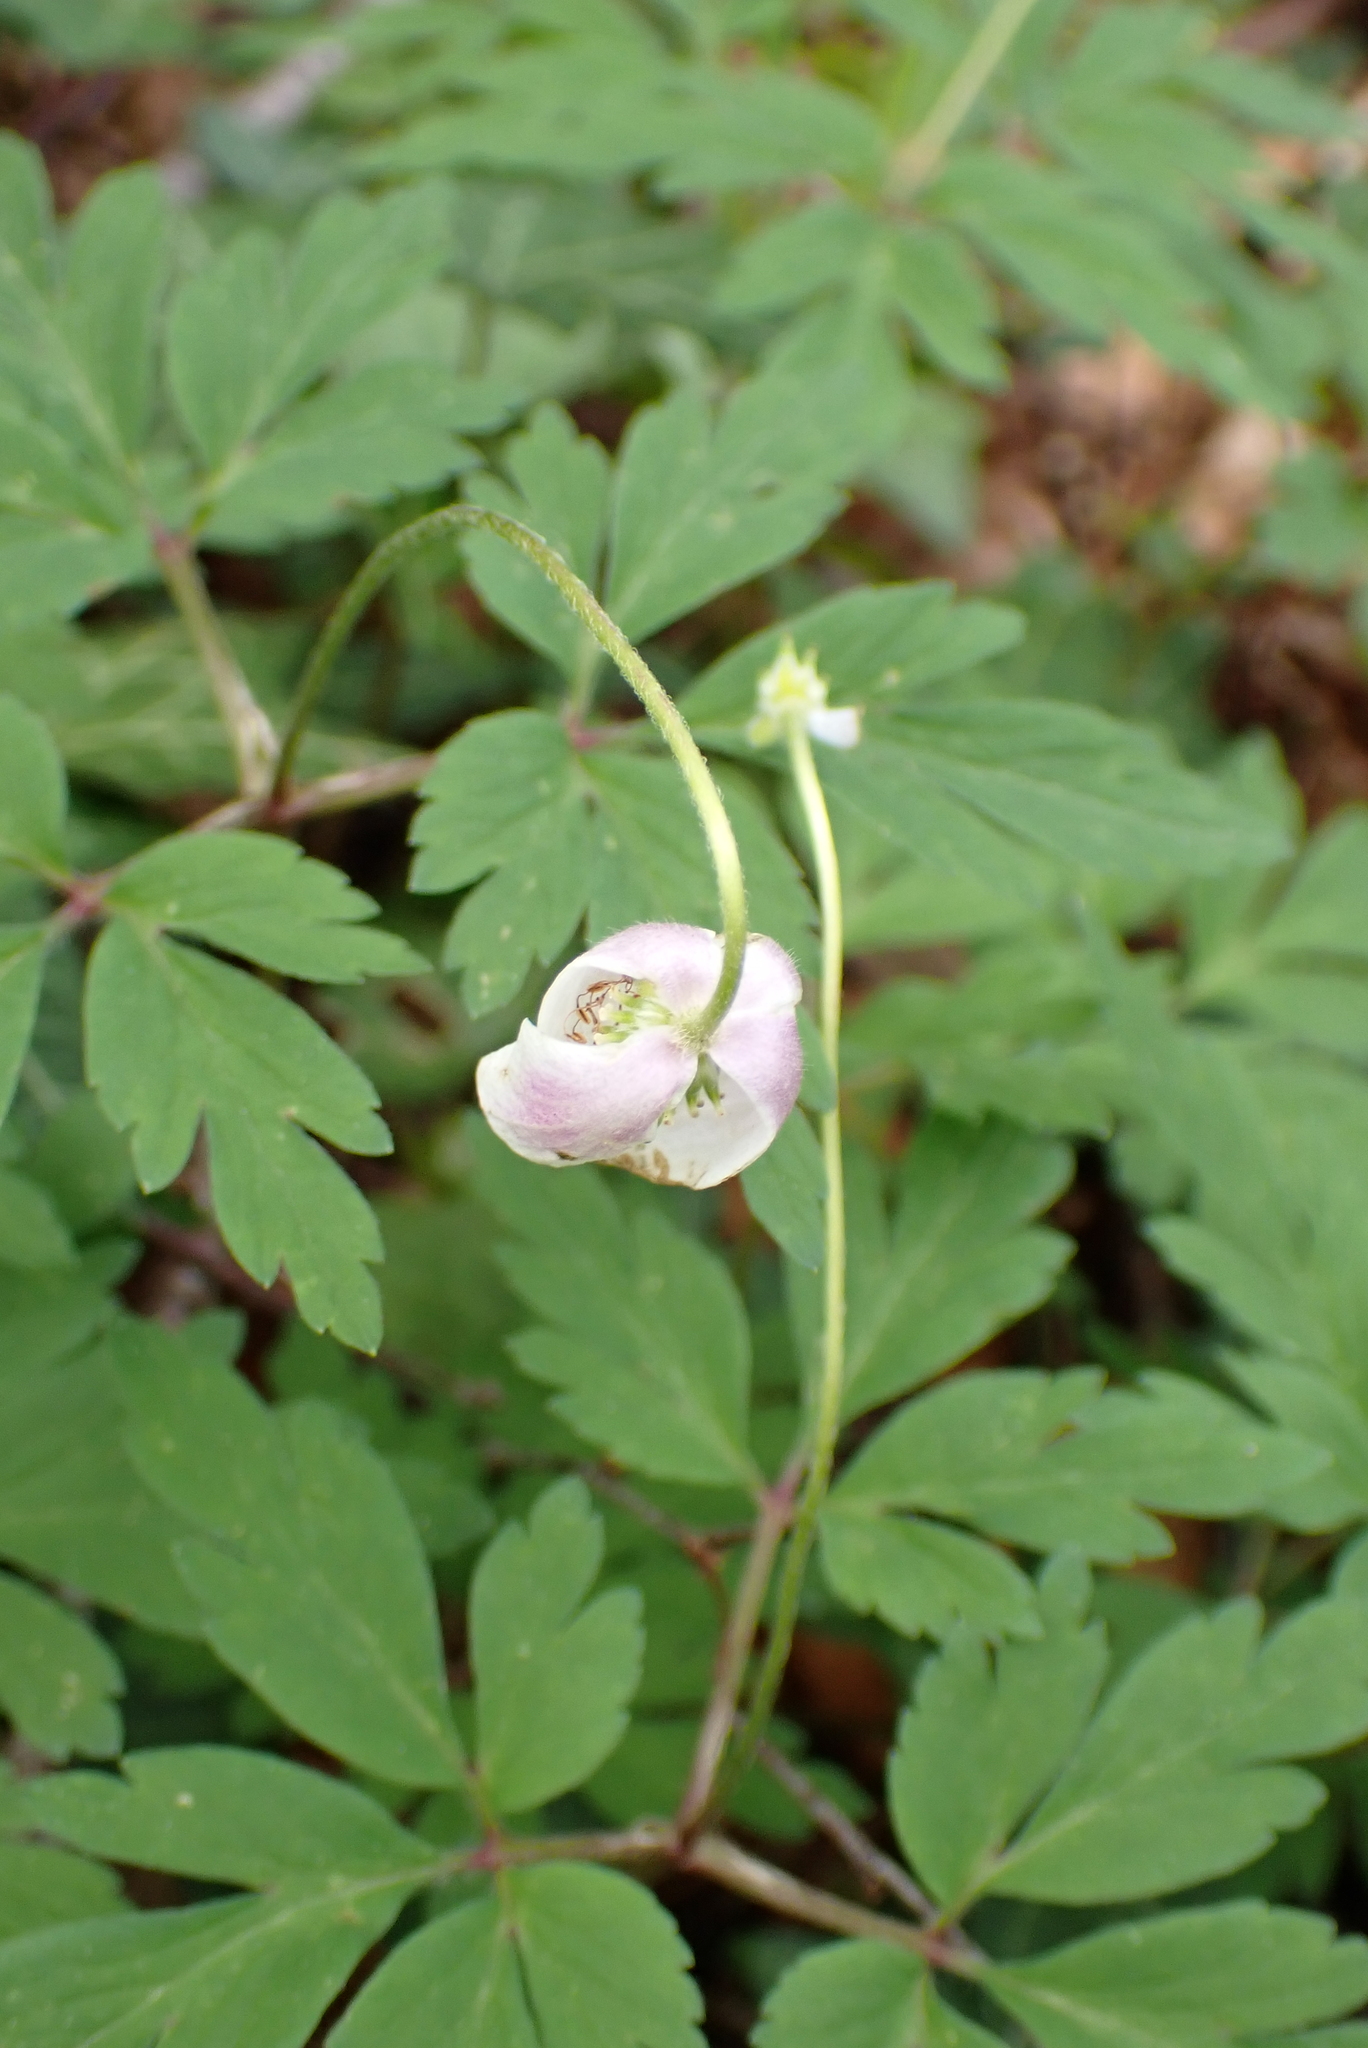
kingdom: Plantae
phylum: Tracheophyta
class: Magnoliopsida
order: Ranunculales
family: Ranunculaceae
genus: Anemone
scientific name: Anemone nemorosa
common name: Wood anemone
